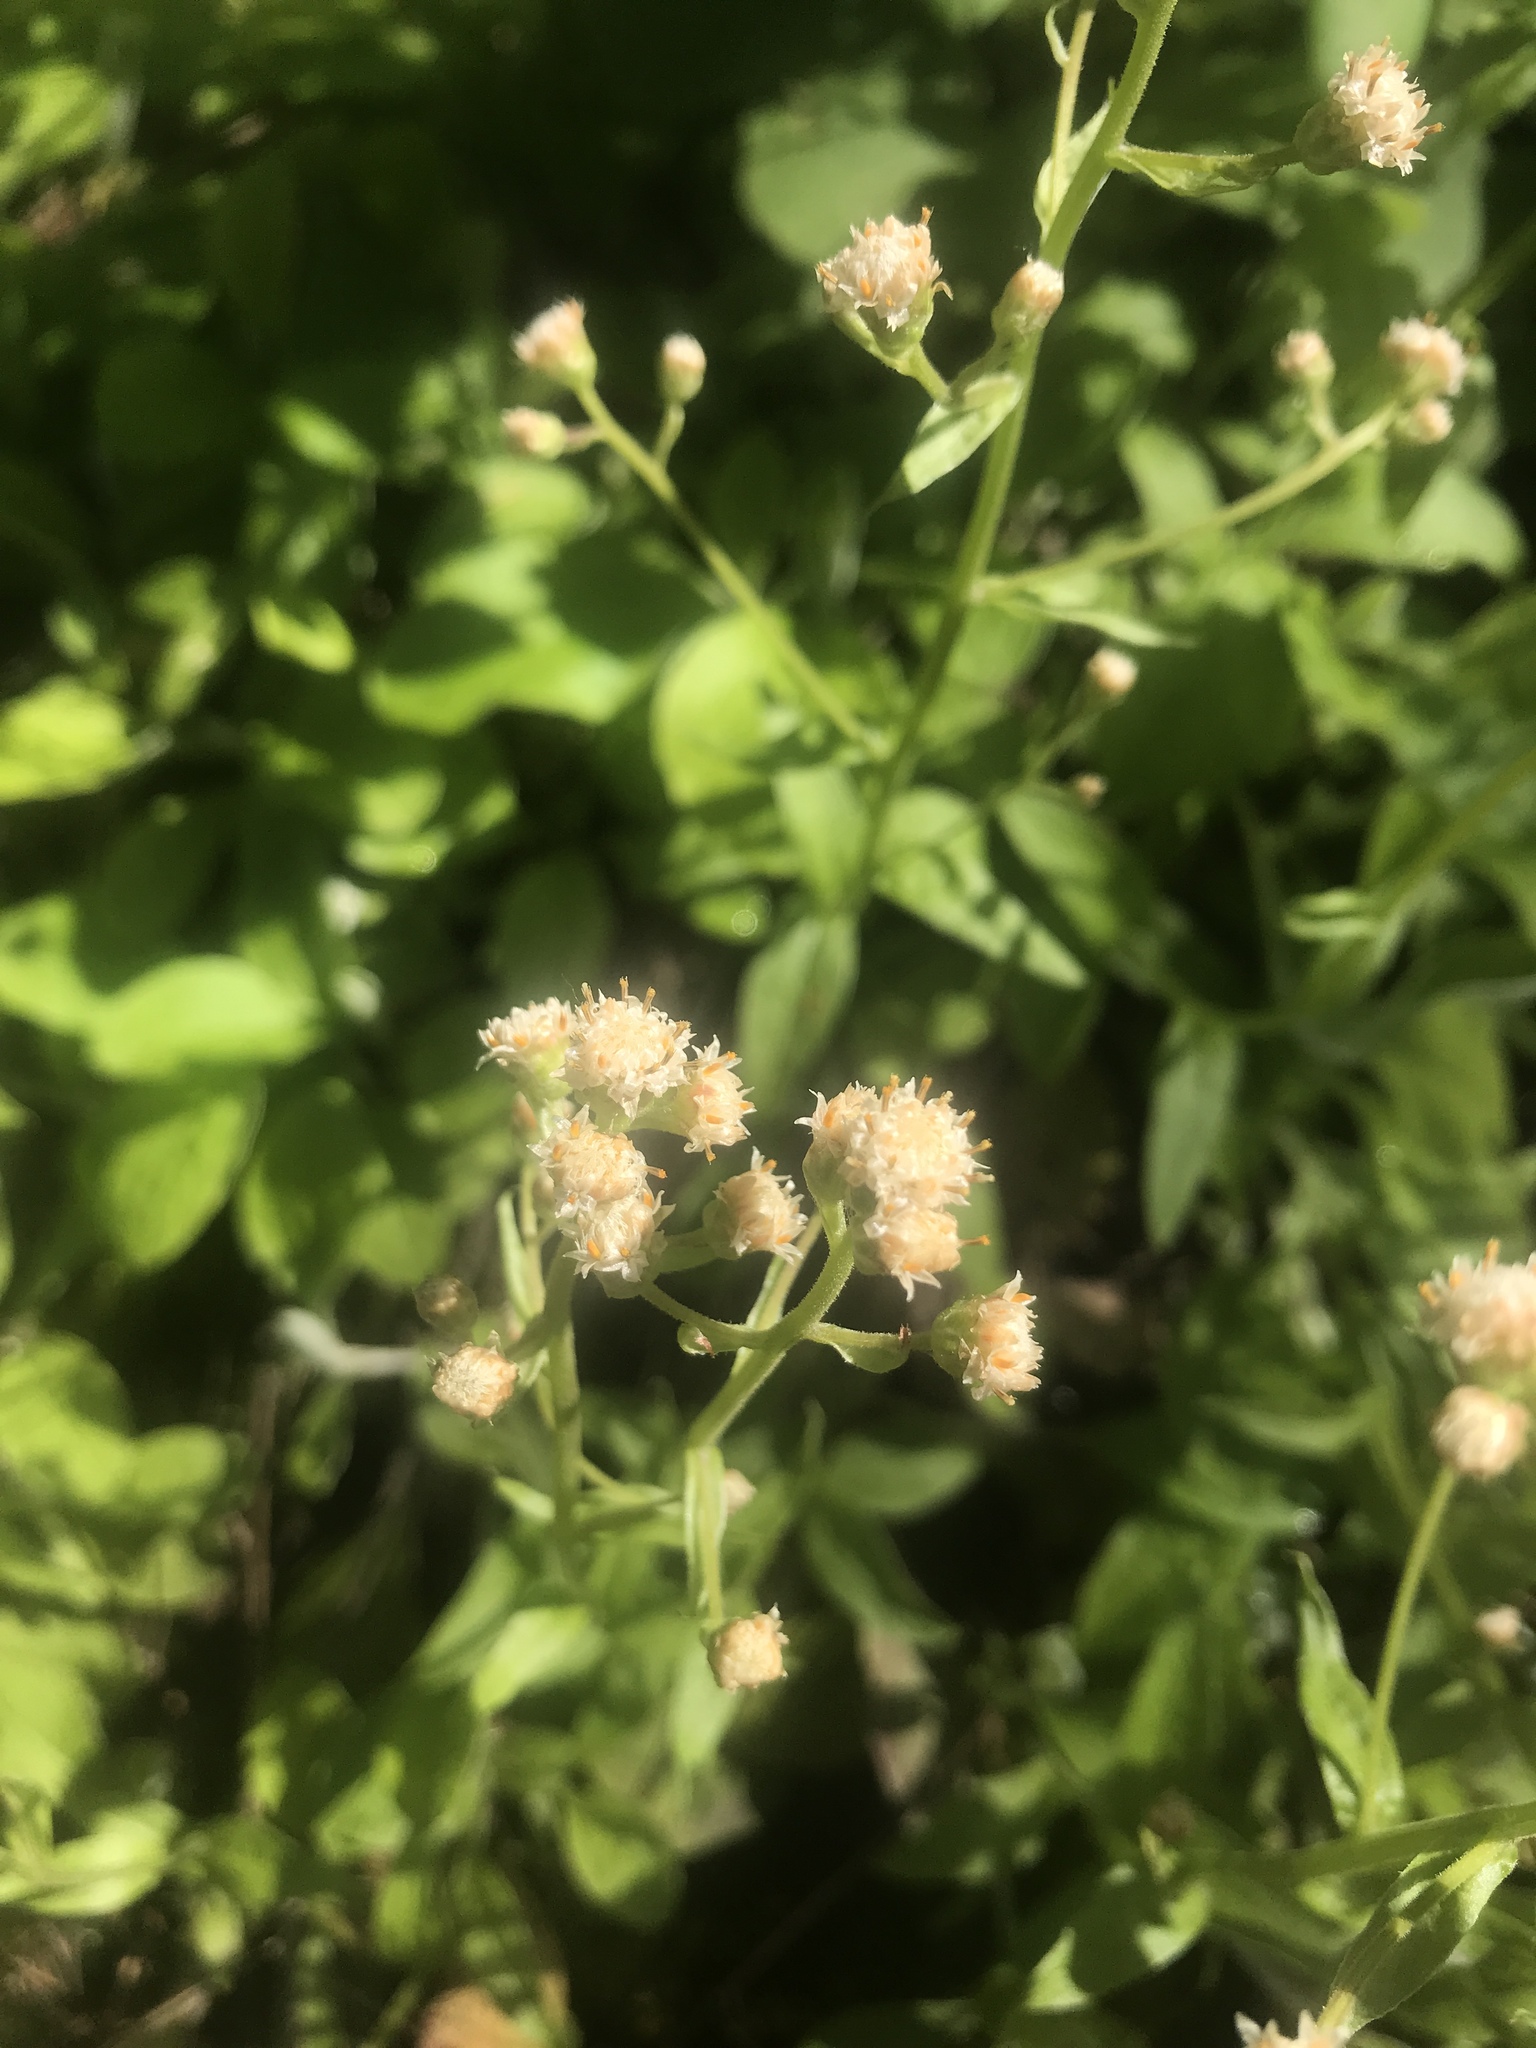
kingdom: Plantae
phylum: Tracheophyta
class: Magnoliopsida
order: Asterales
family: Asteraceae
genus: Antennaria
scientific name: Antennaria racemosa
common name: Racemose pussytoes
